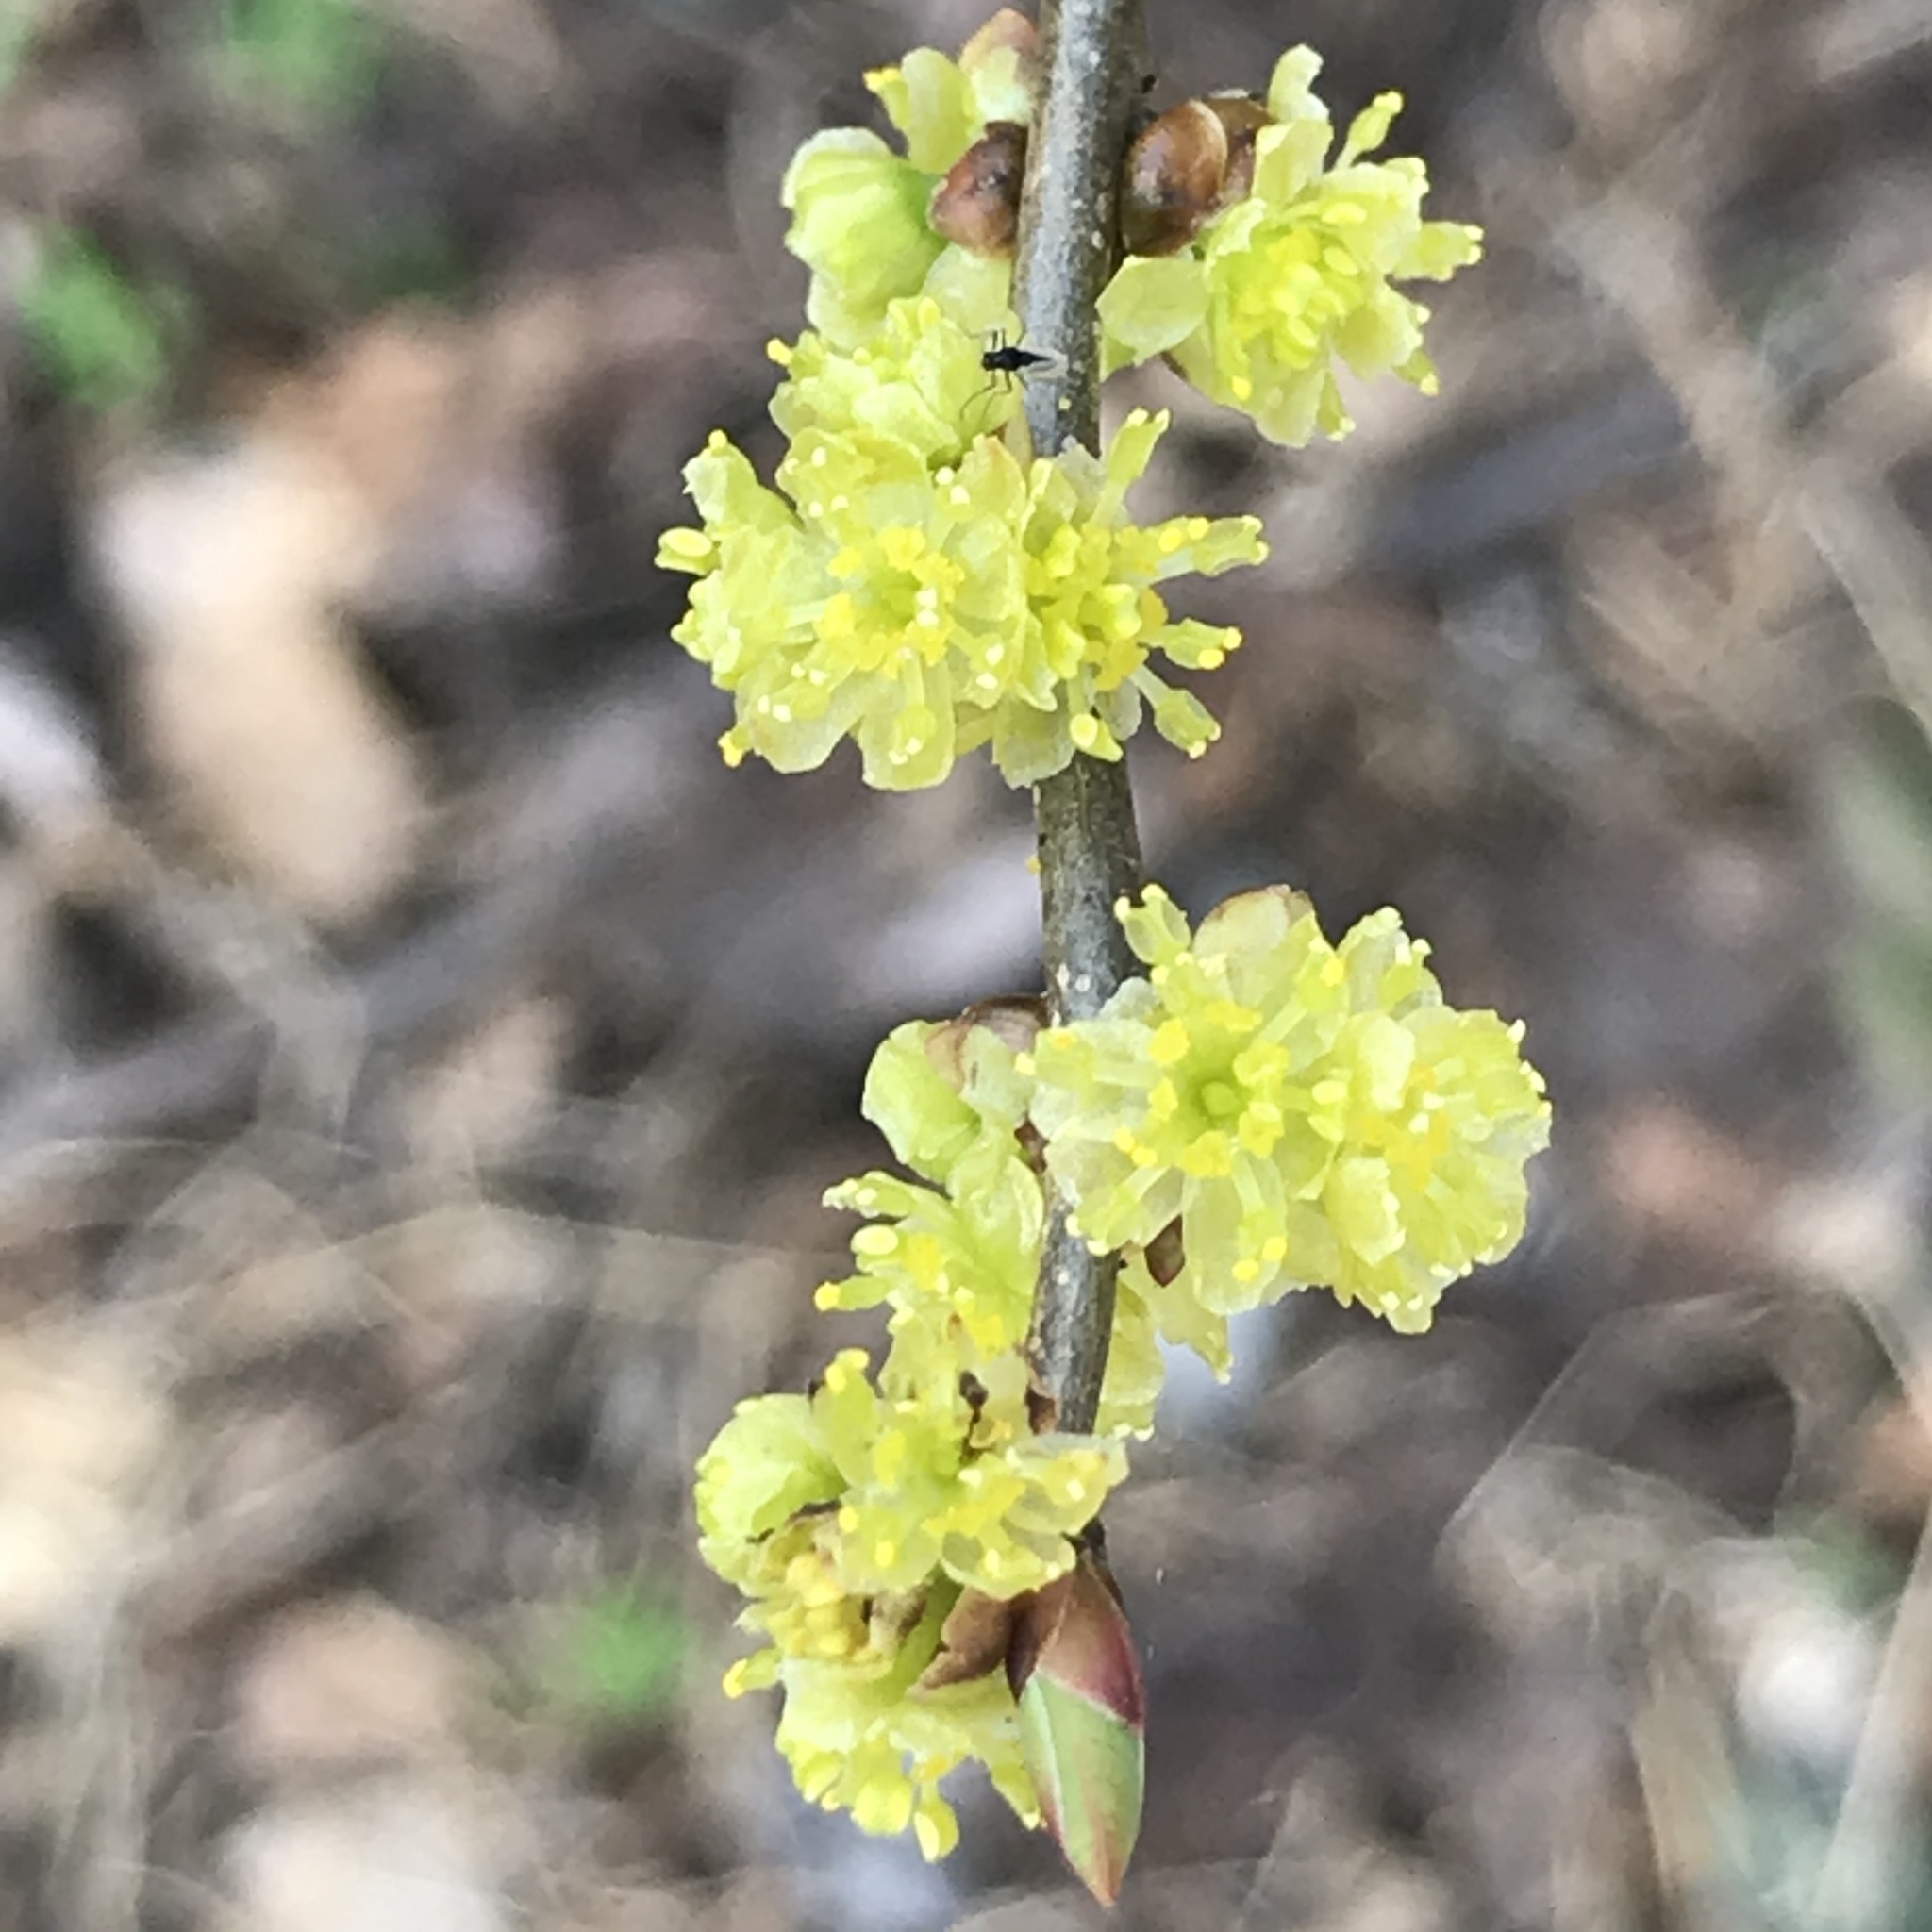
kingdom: Plantae
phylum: Tracheophyta
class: Magnoliopsida
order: Laurales
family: Lauraceae
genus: Lindera
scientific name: Lindera benzoin
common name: Spicebush
